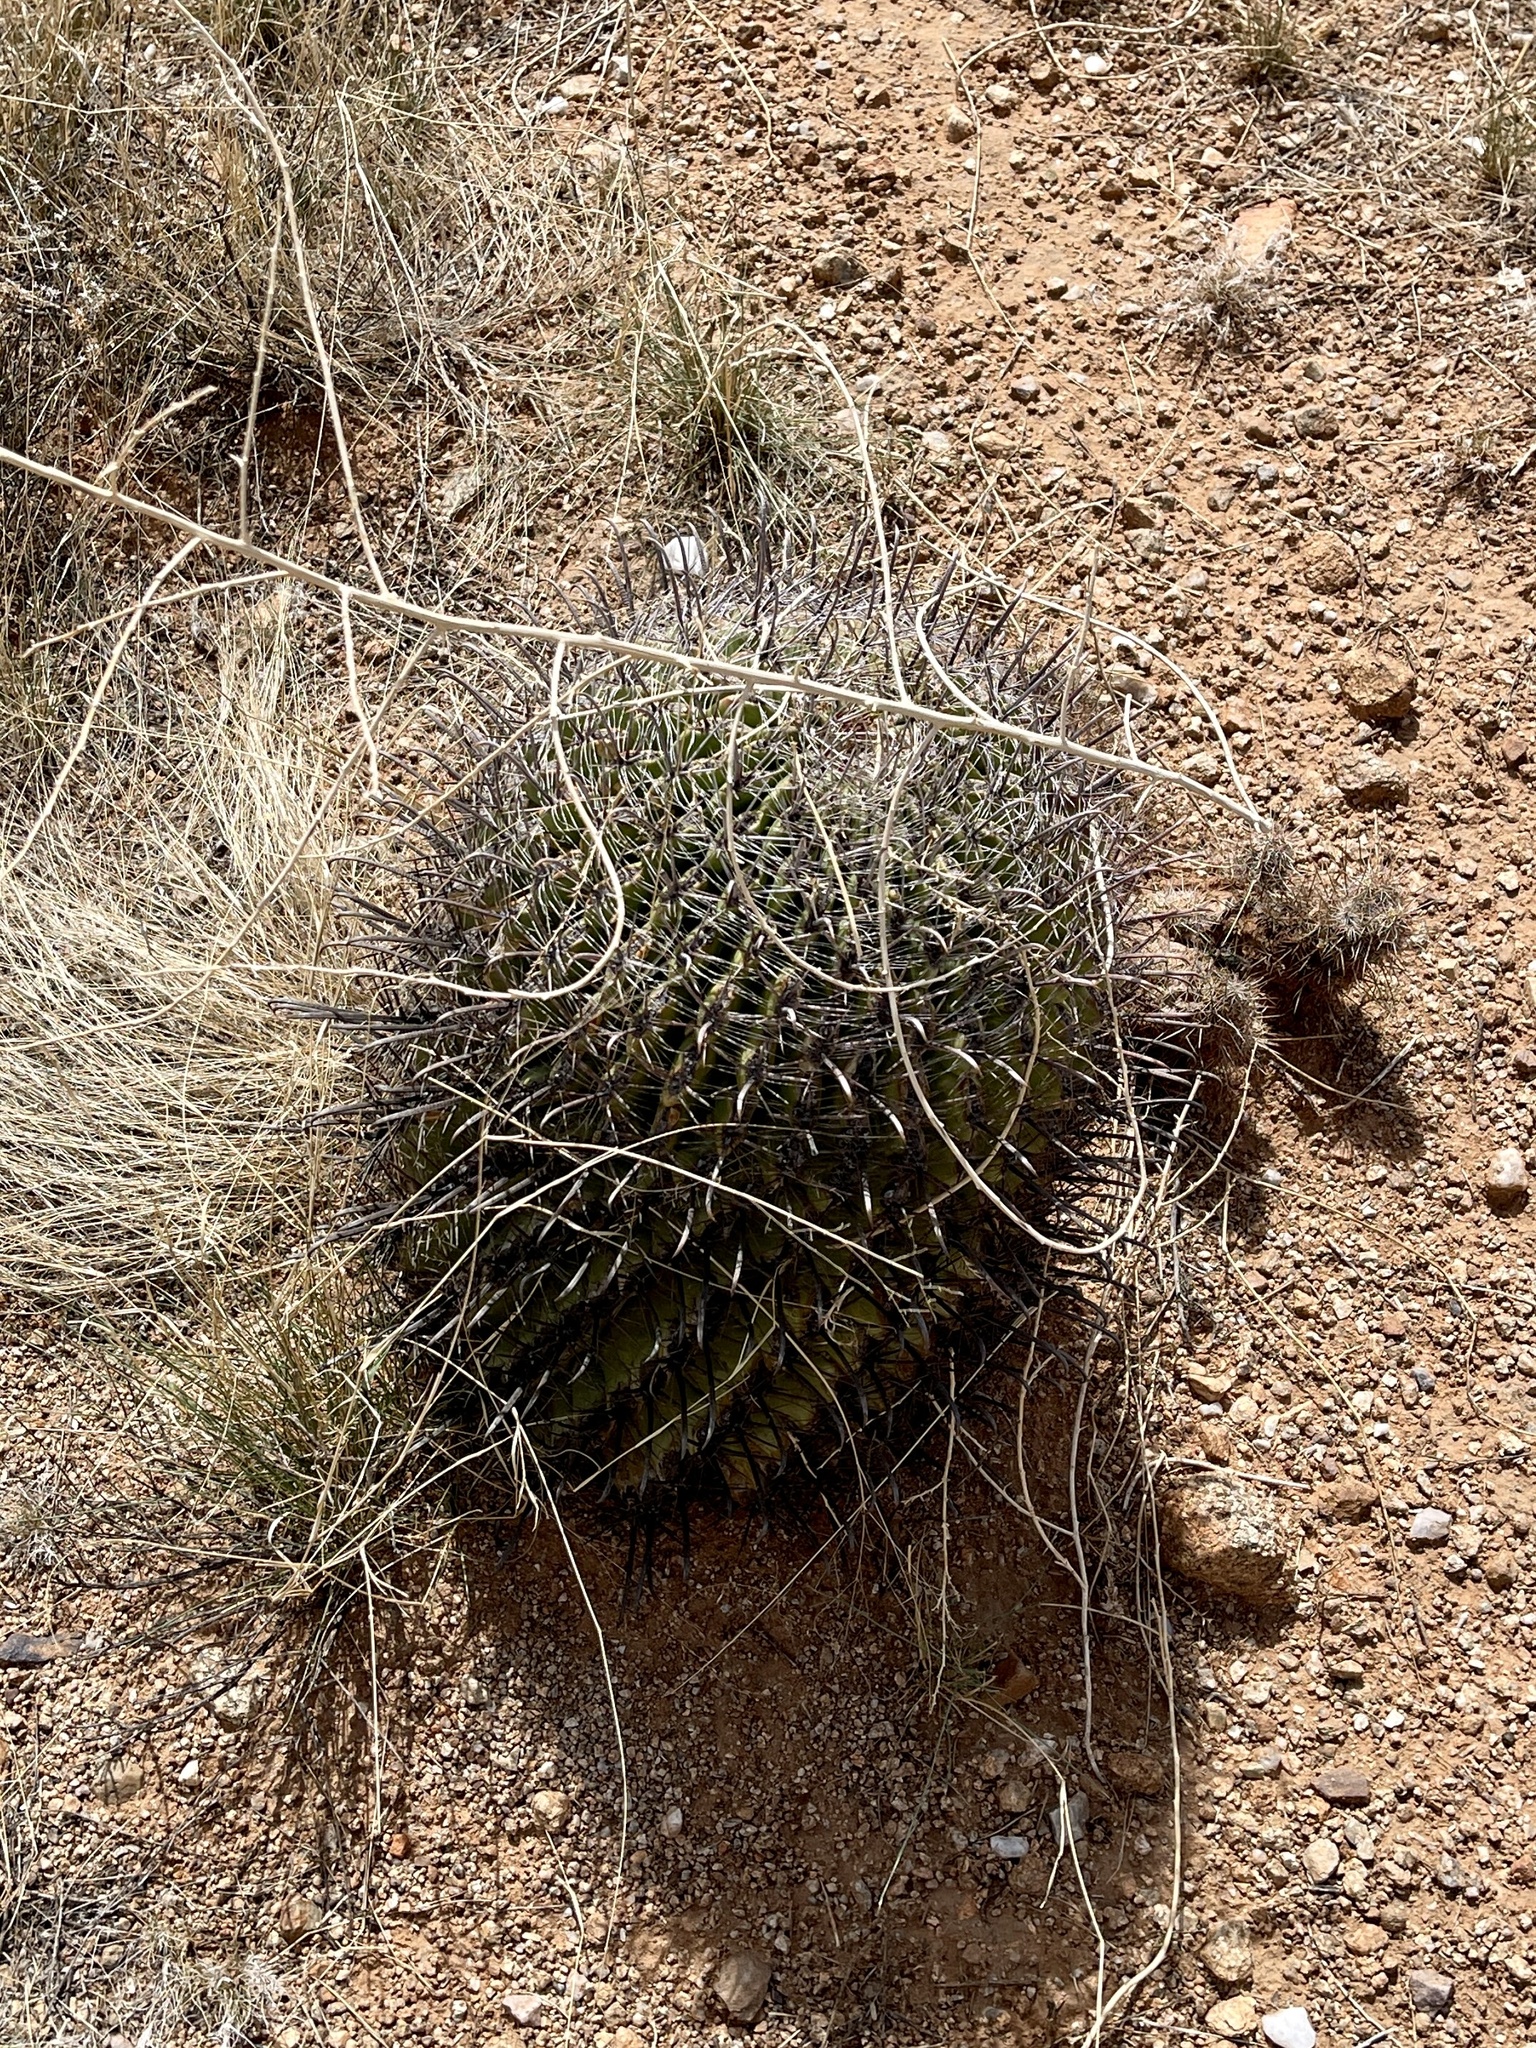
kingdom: Plantae
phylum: Tracheophyta
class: Magnoliopsida
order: Caryophyllales
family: Cactaceae
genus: Ferocactus
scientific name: Ferocactus wislizeni
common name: Candy barrel cactus
